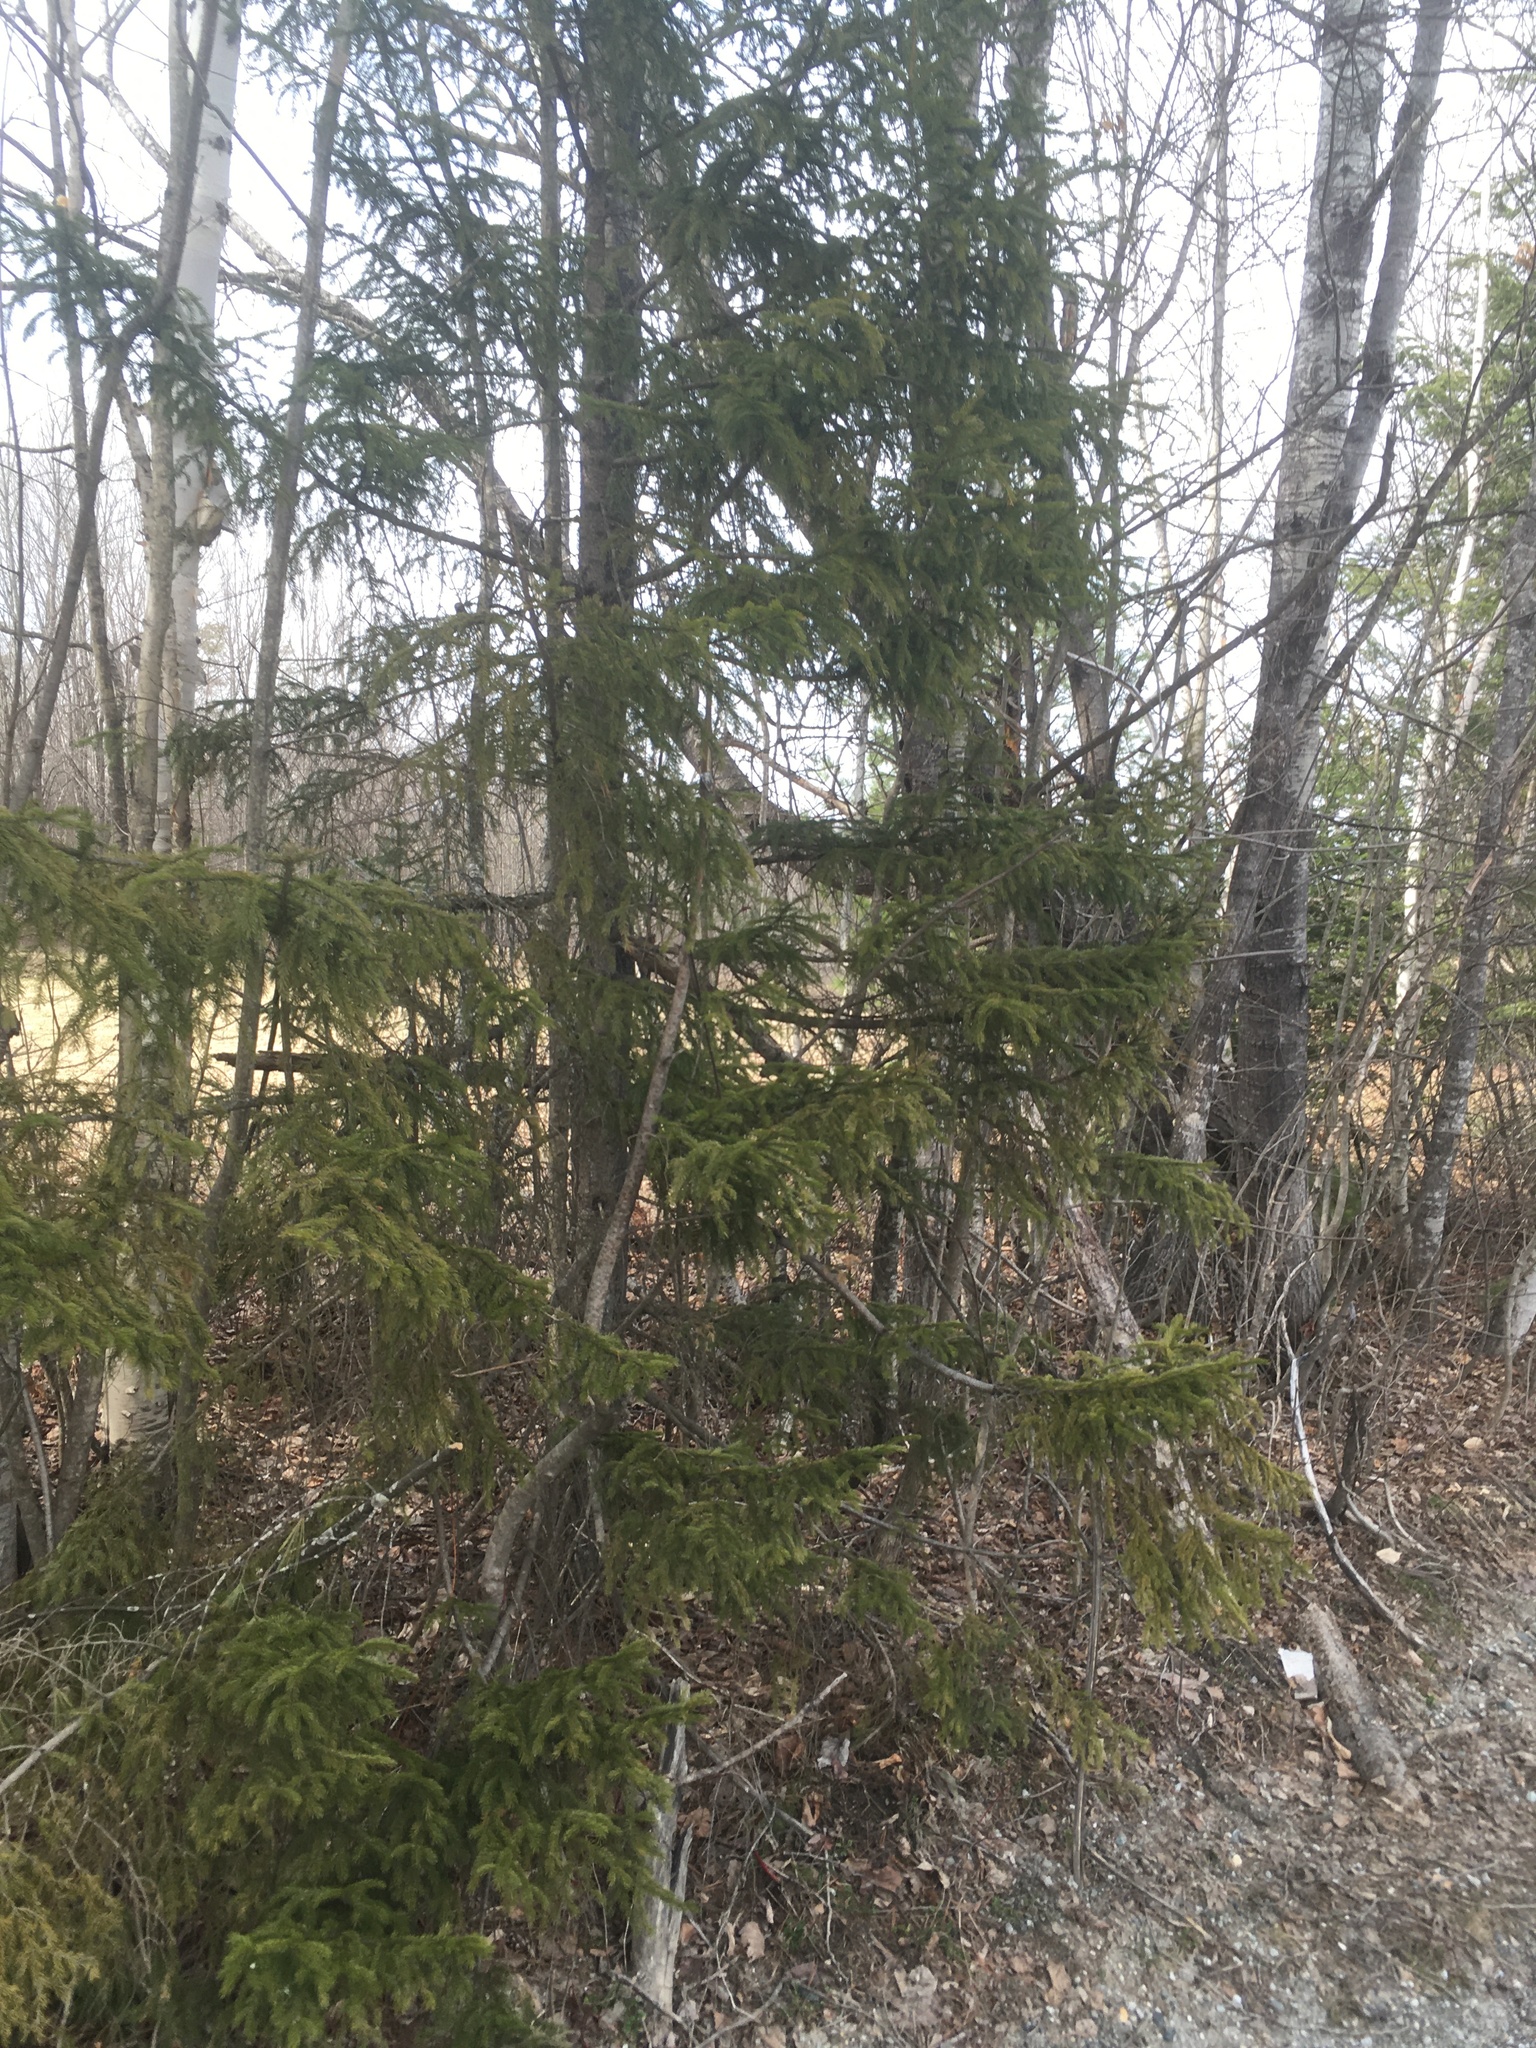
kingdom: Plantae
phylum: Tracheophyta
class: Pinopsida
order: Pinales
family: Pinaceae
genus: Picea
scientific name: Picea abies
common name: Norway spruce
